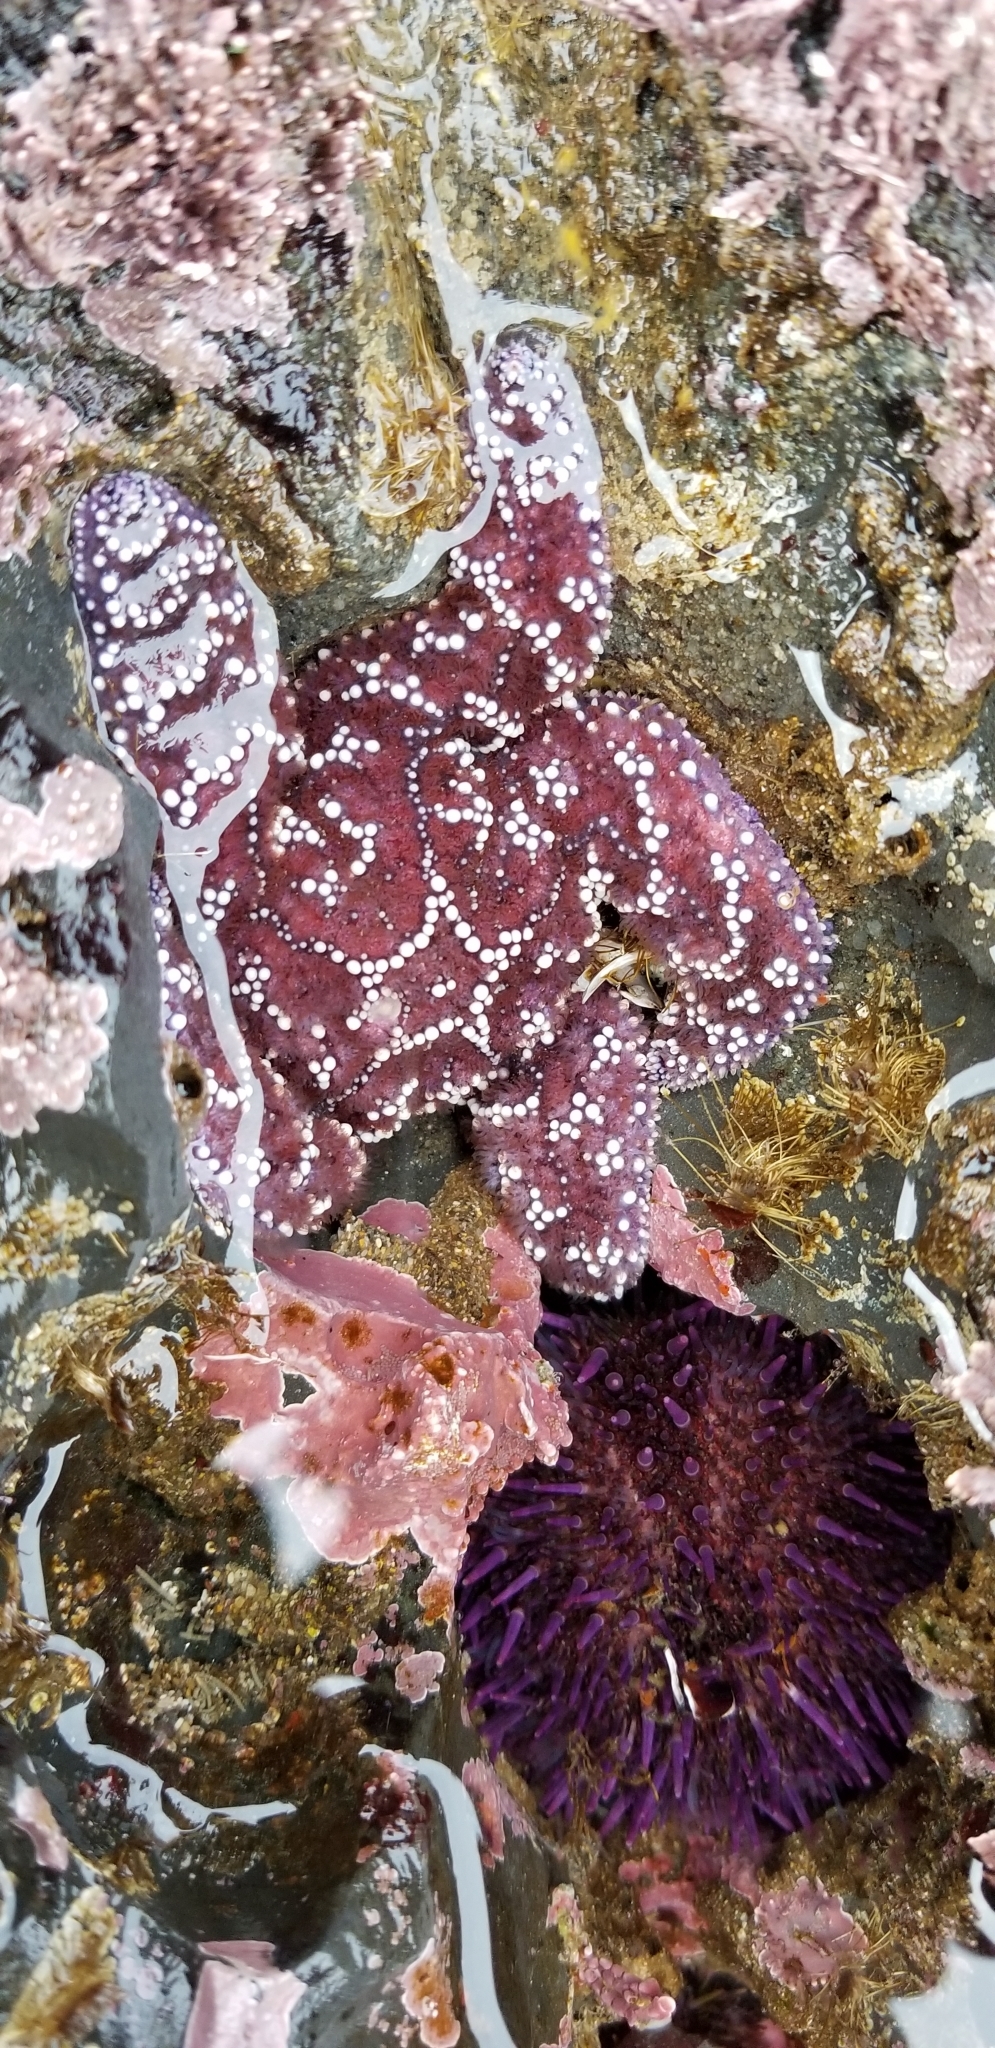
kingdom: Animalia
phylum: Echinodermata
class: Asteroidea
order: Forcipulatida
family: Asteriidae
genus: Pisaster
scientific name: Pisaster ochraceus
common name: Ochre stars
